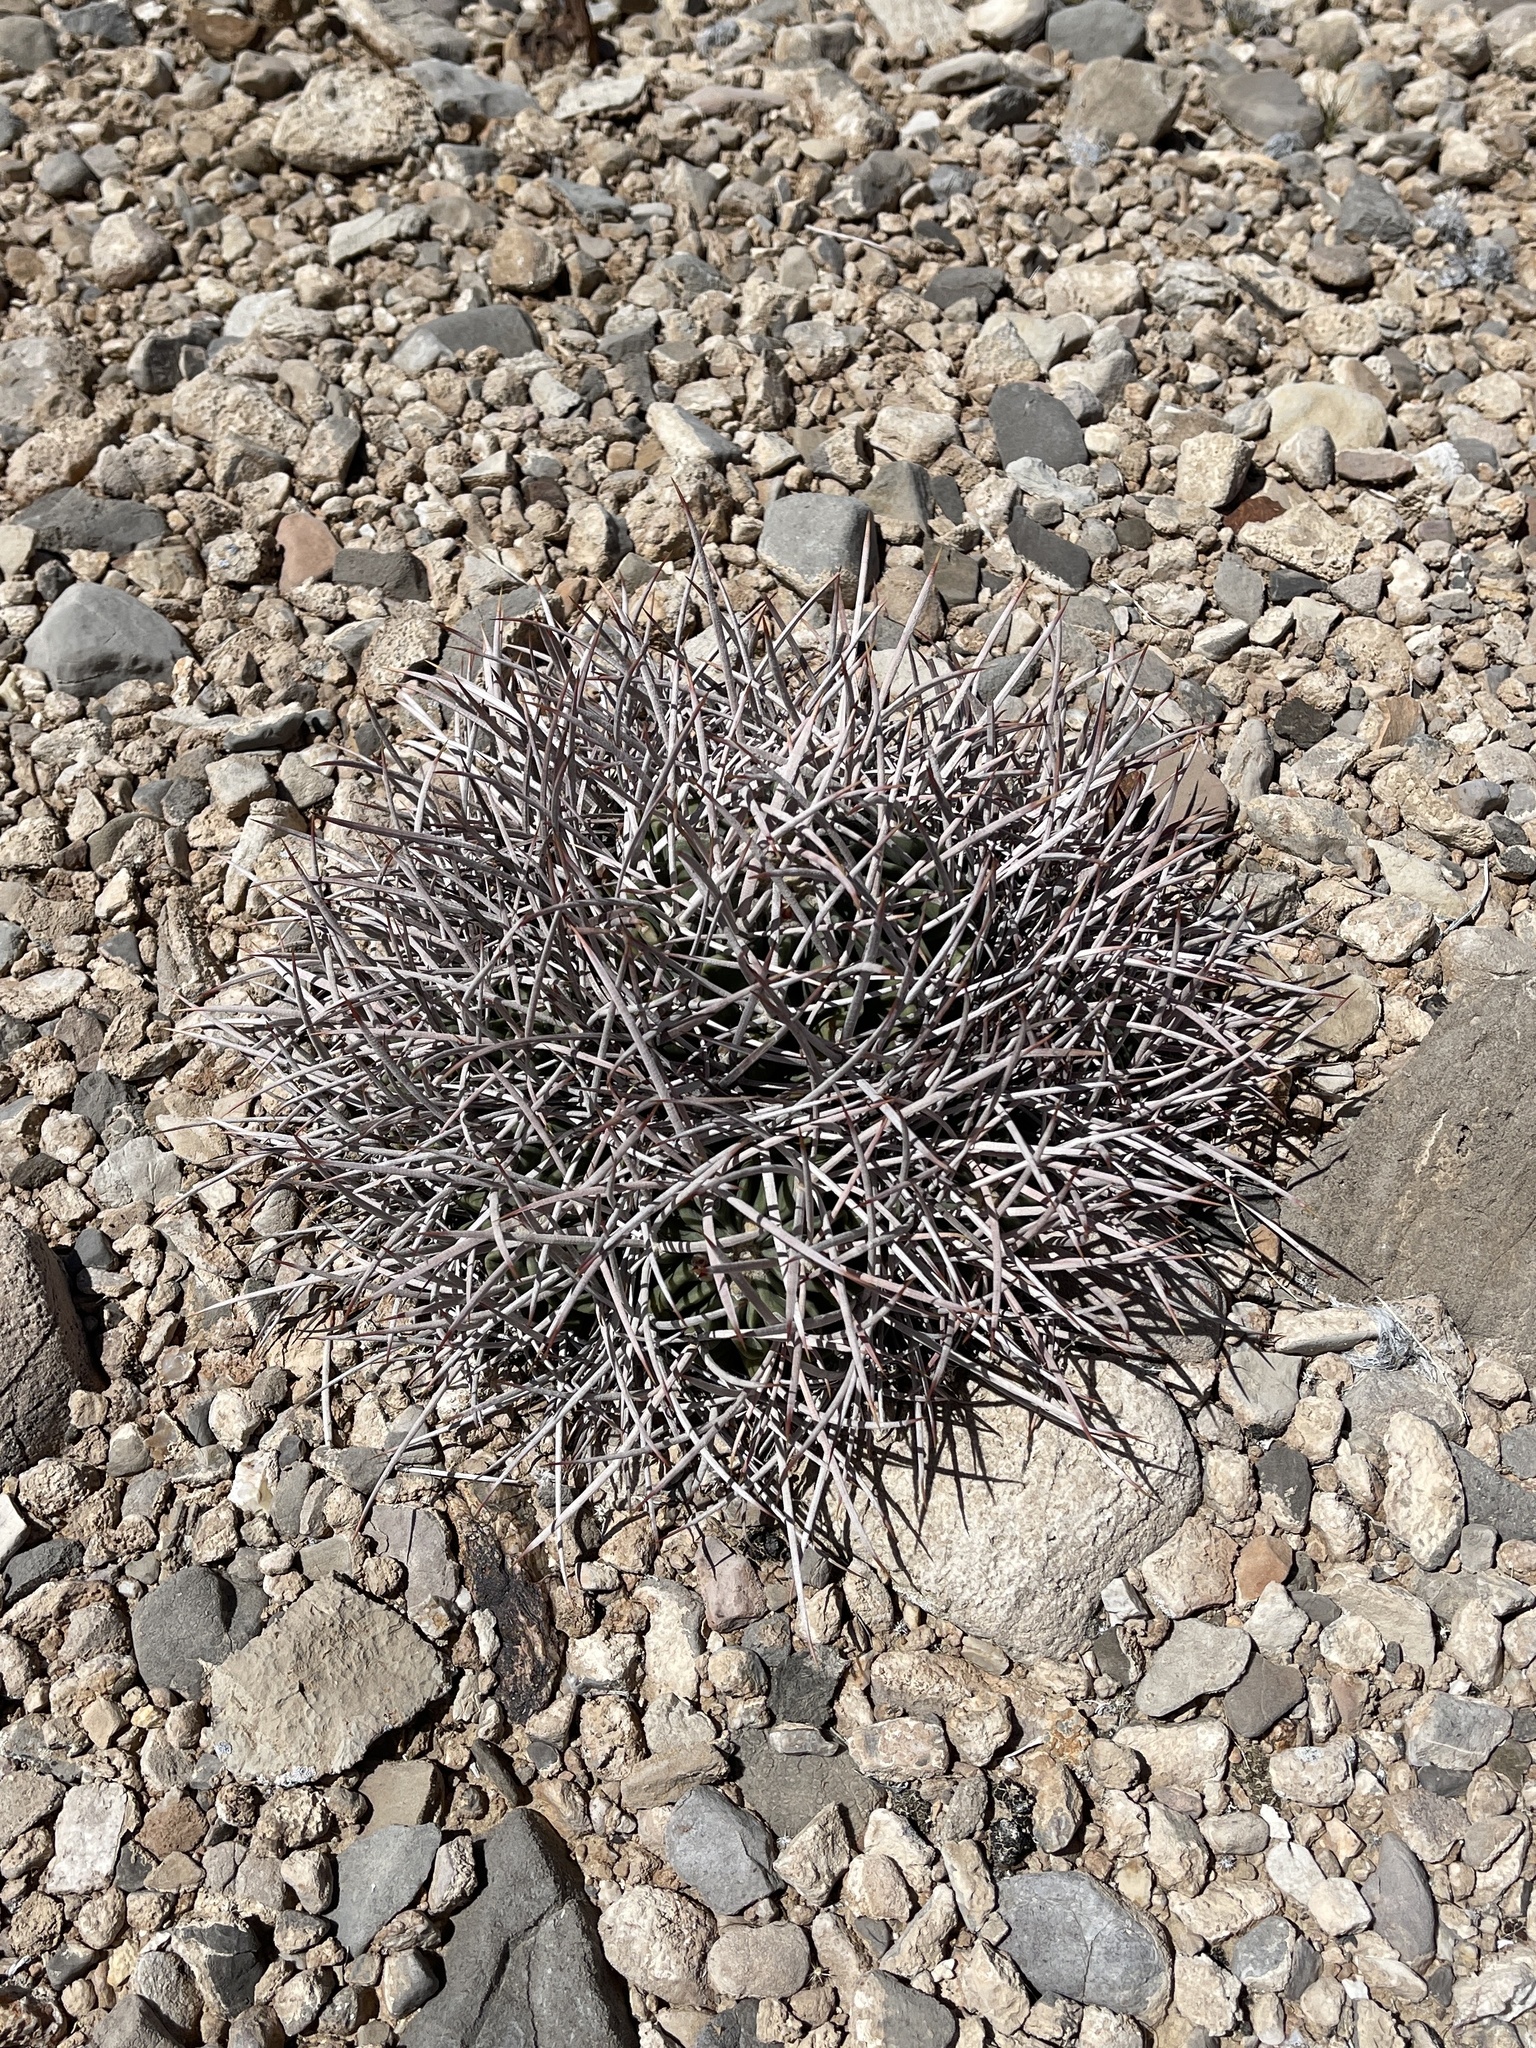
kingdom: Plantae
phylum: Tracheophyta
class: Magnoliopsida
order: Caryophyllales
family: Cactaceae
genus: Echinocactus
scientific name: Echinocactus polycephalus
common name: Cottontop cactus
